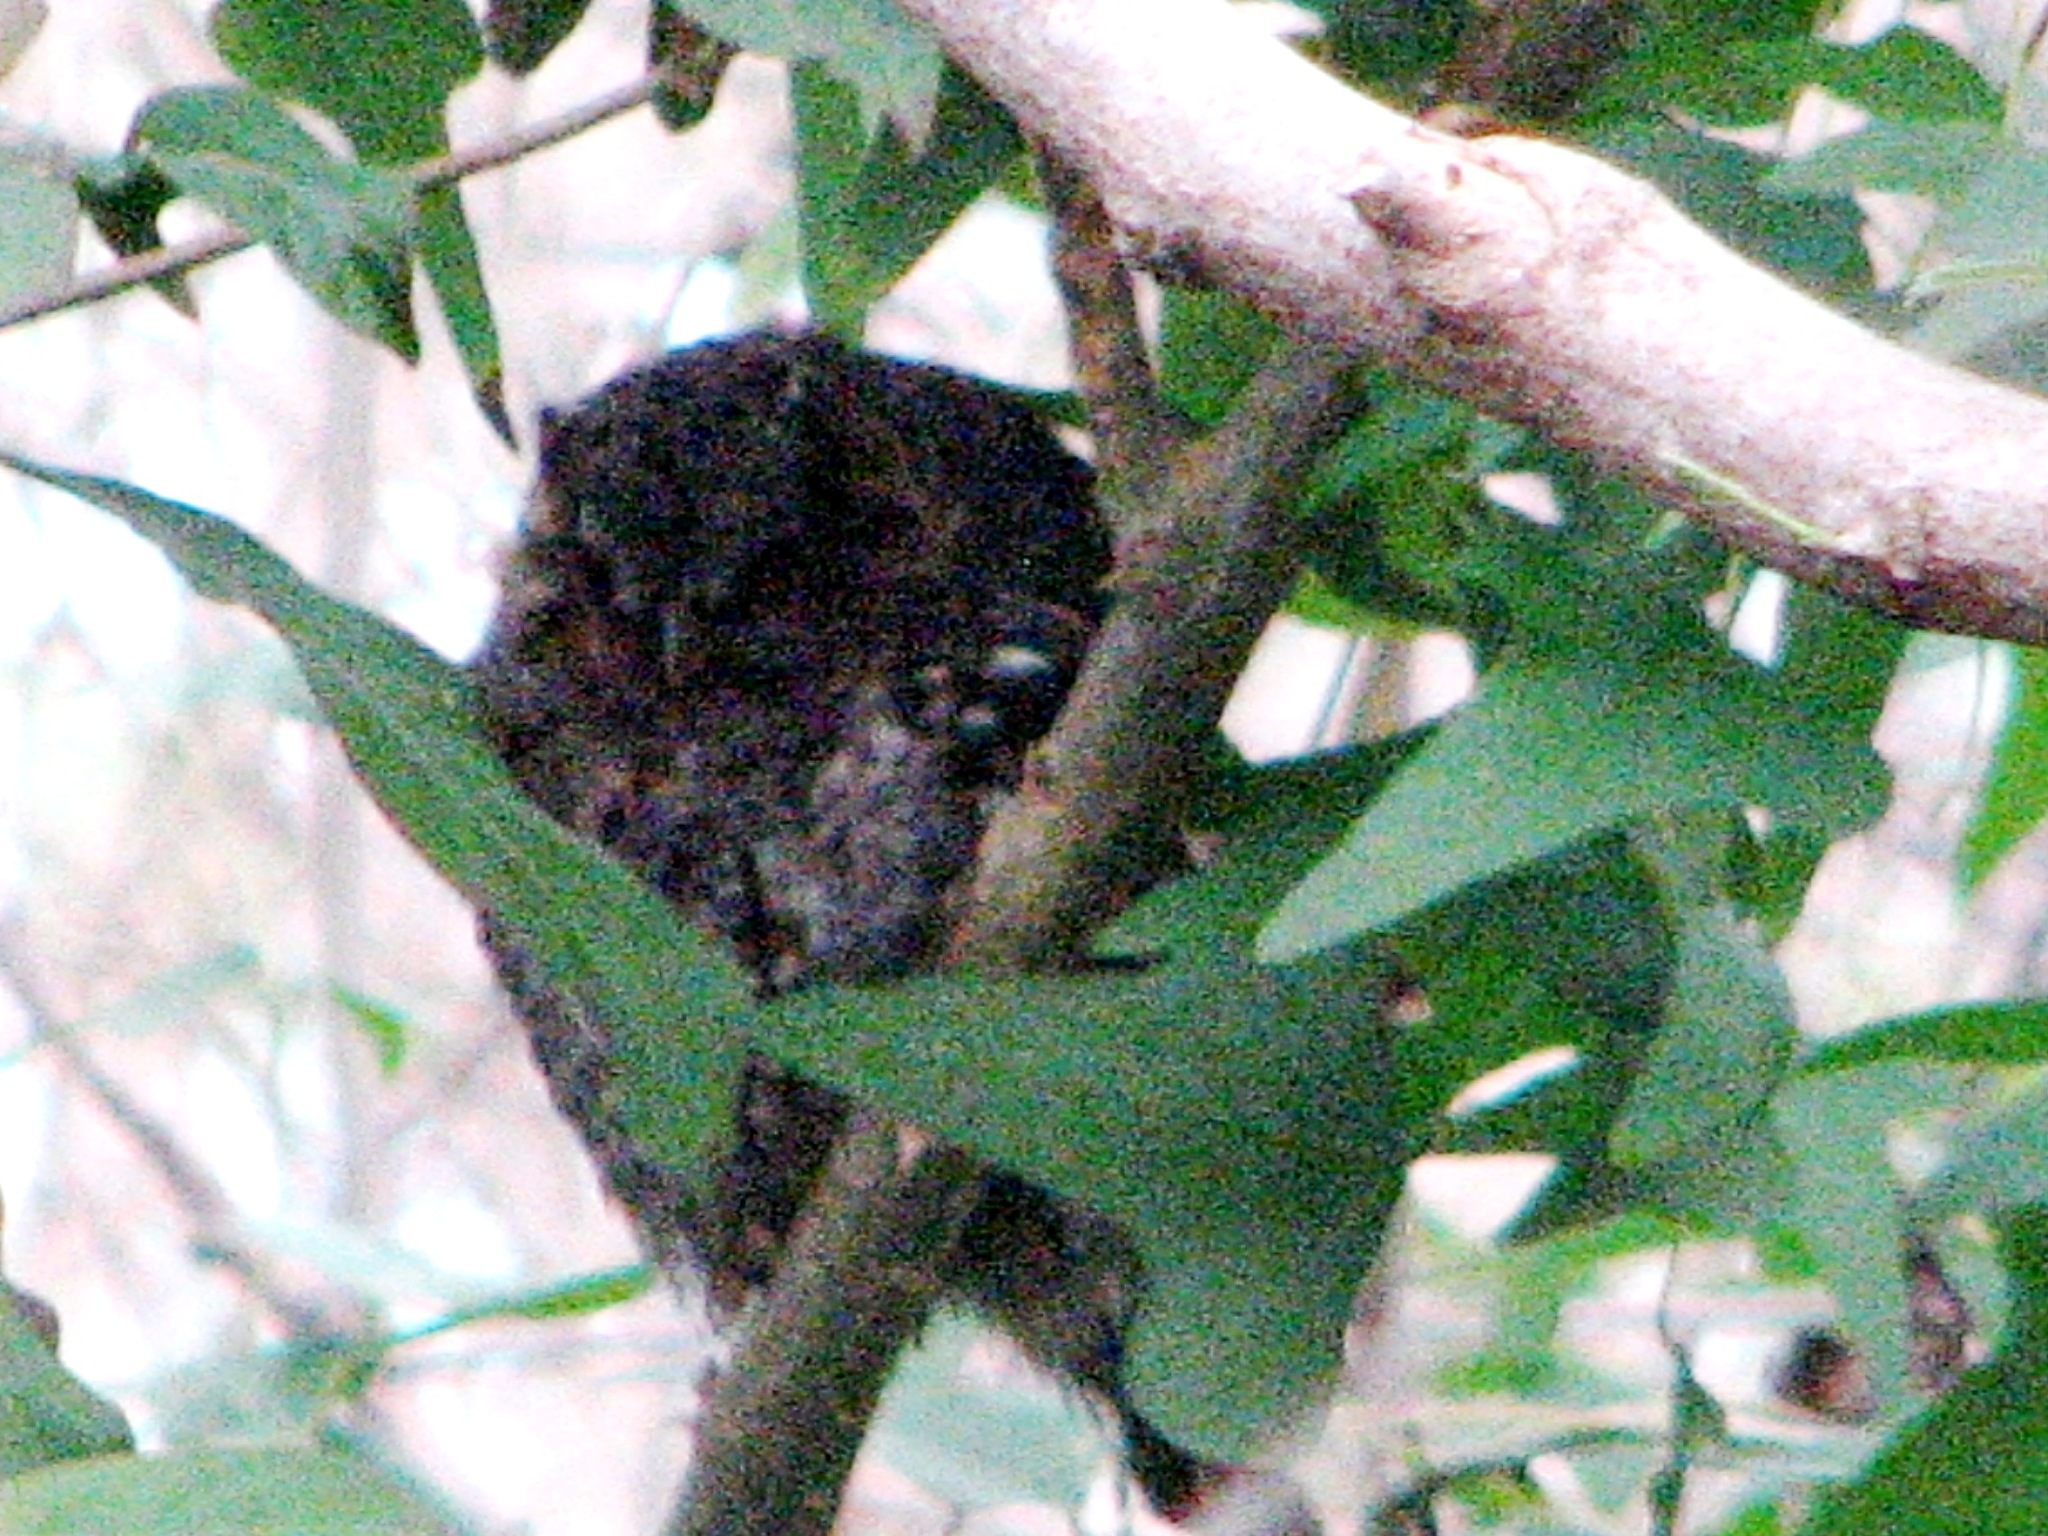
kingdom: Animalia
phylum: Chordata
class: Aves
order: Strigiformes
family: Strigidae
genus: Psiloscops
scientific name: Psiloscops flammeolus
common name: Flammulated owl
